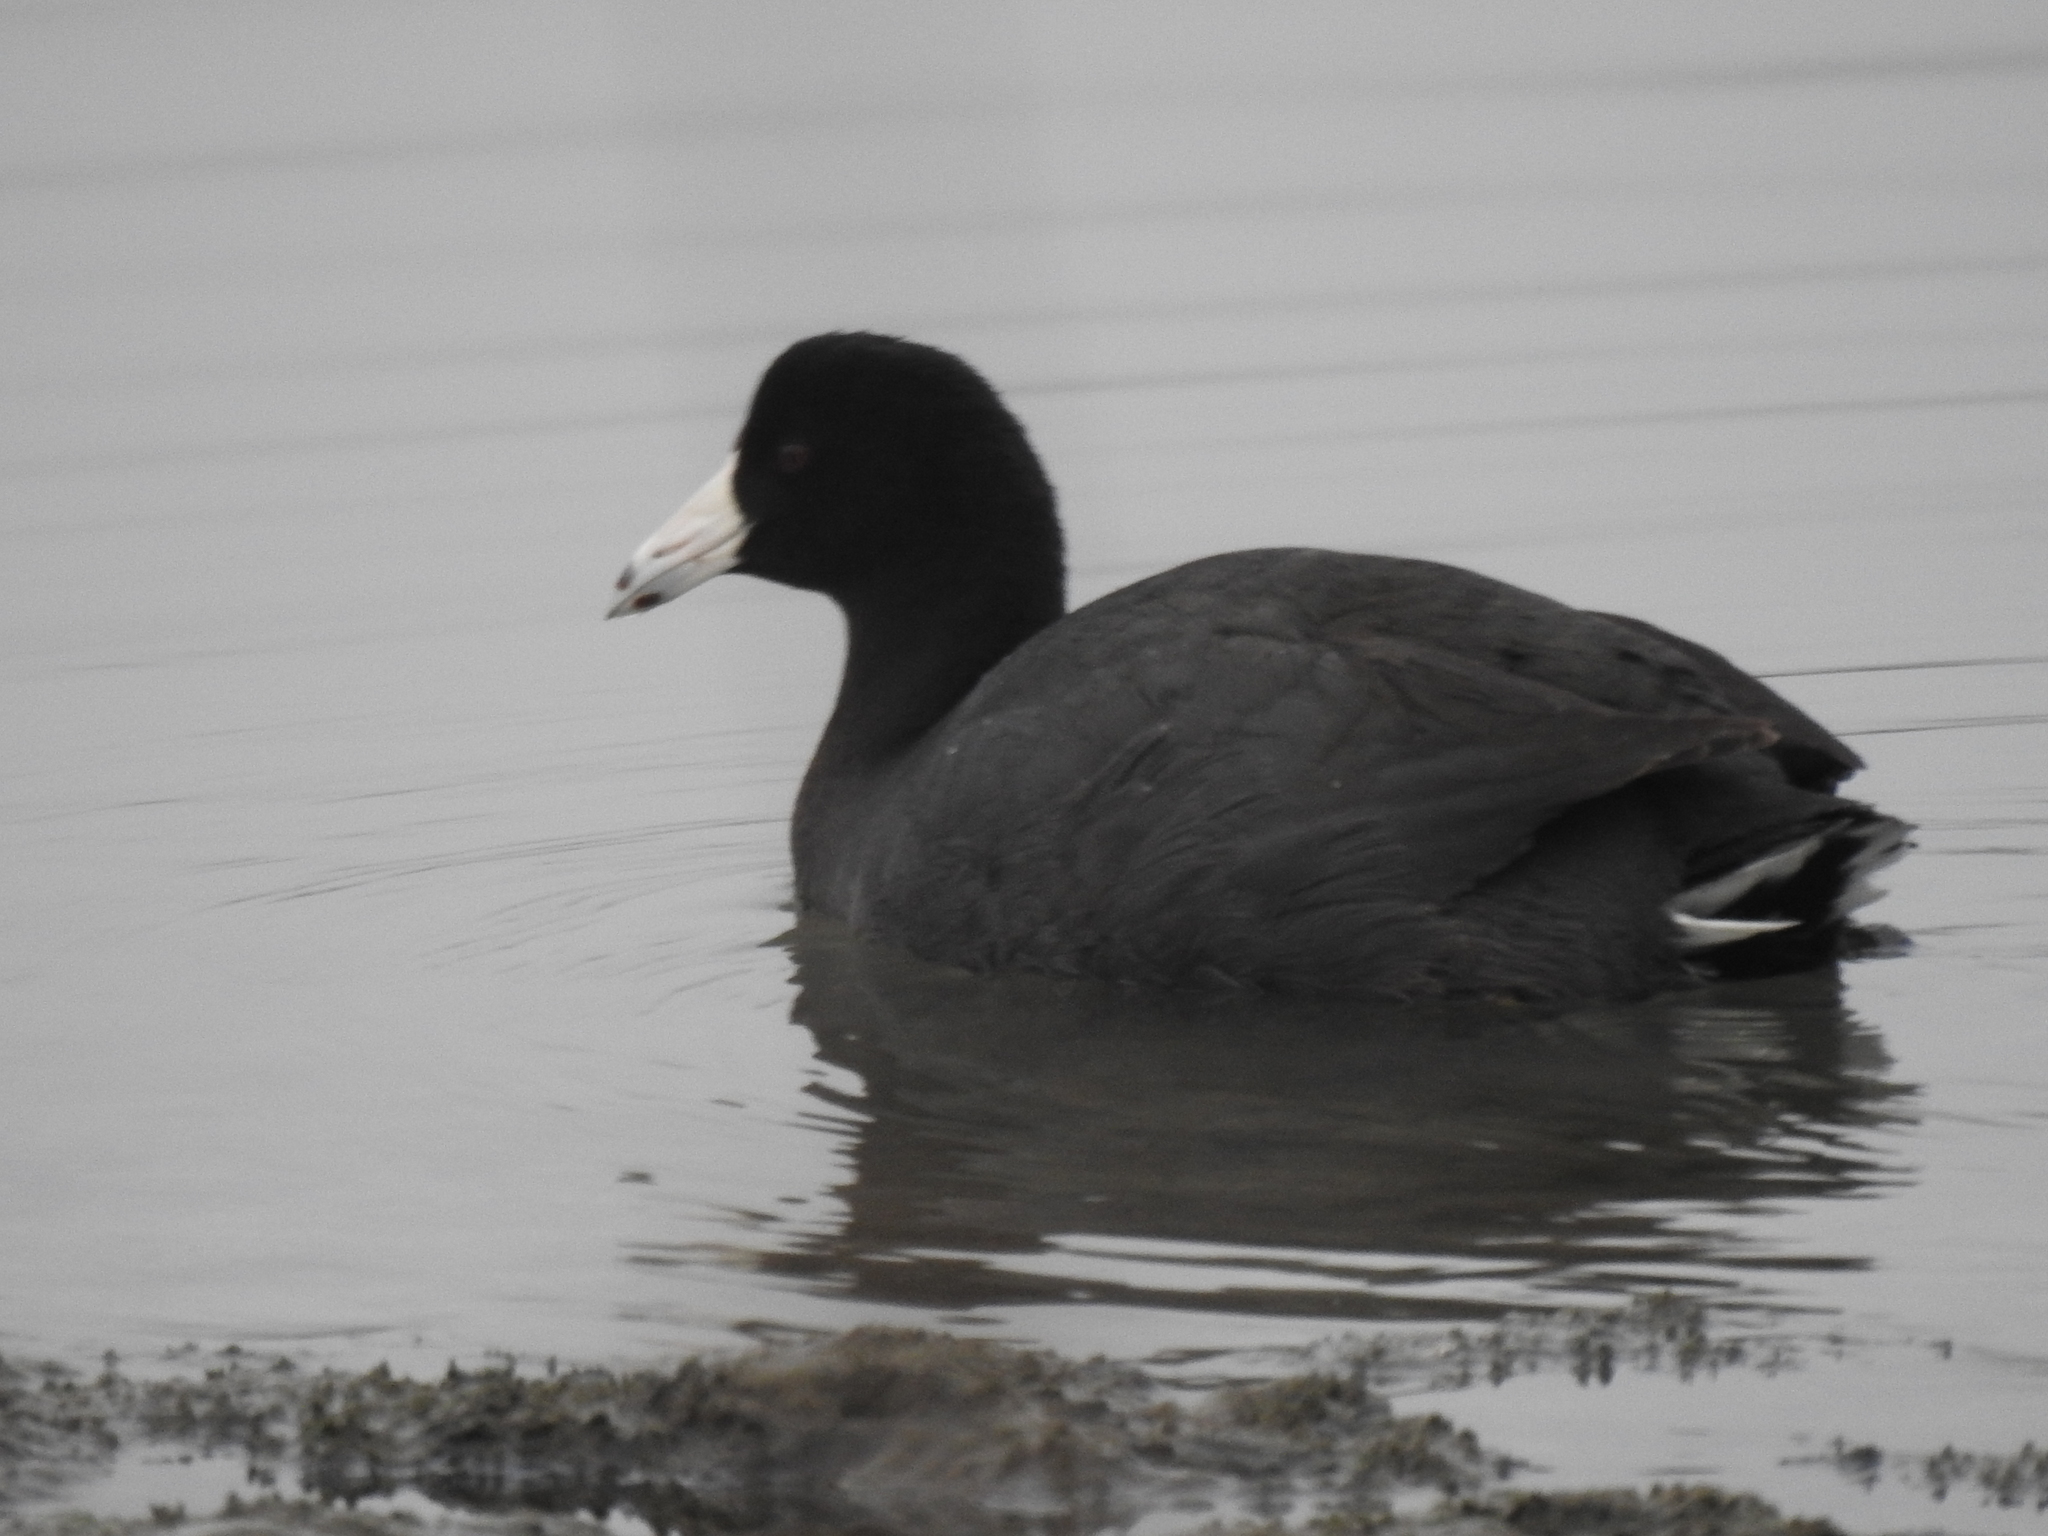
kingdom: Animalia
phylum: Chordata
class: Aves
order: Gruiformes
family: Rallidae
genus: Fulica
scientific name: Fulica americana
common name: American coot
